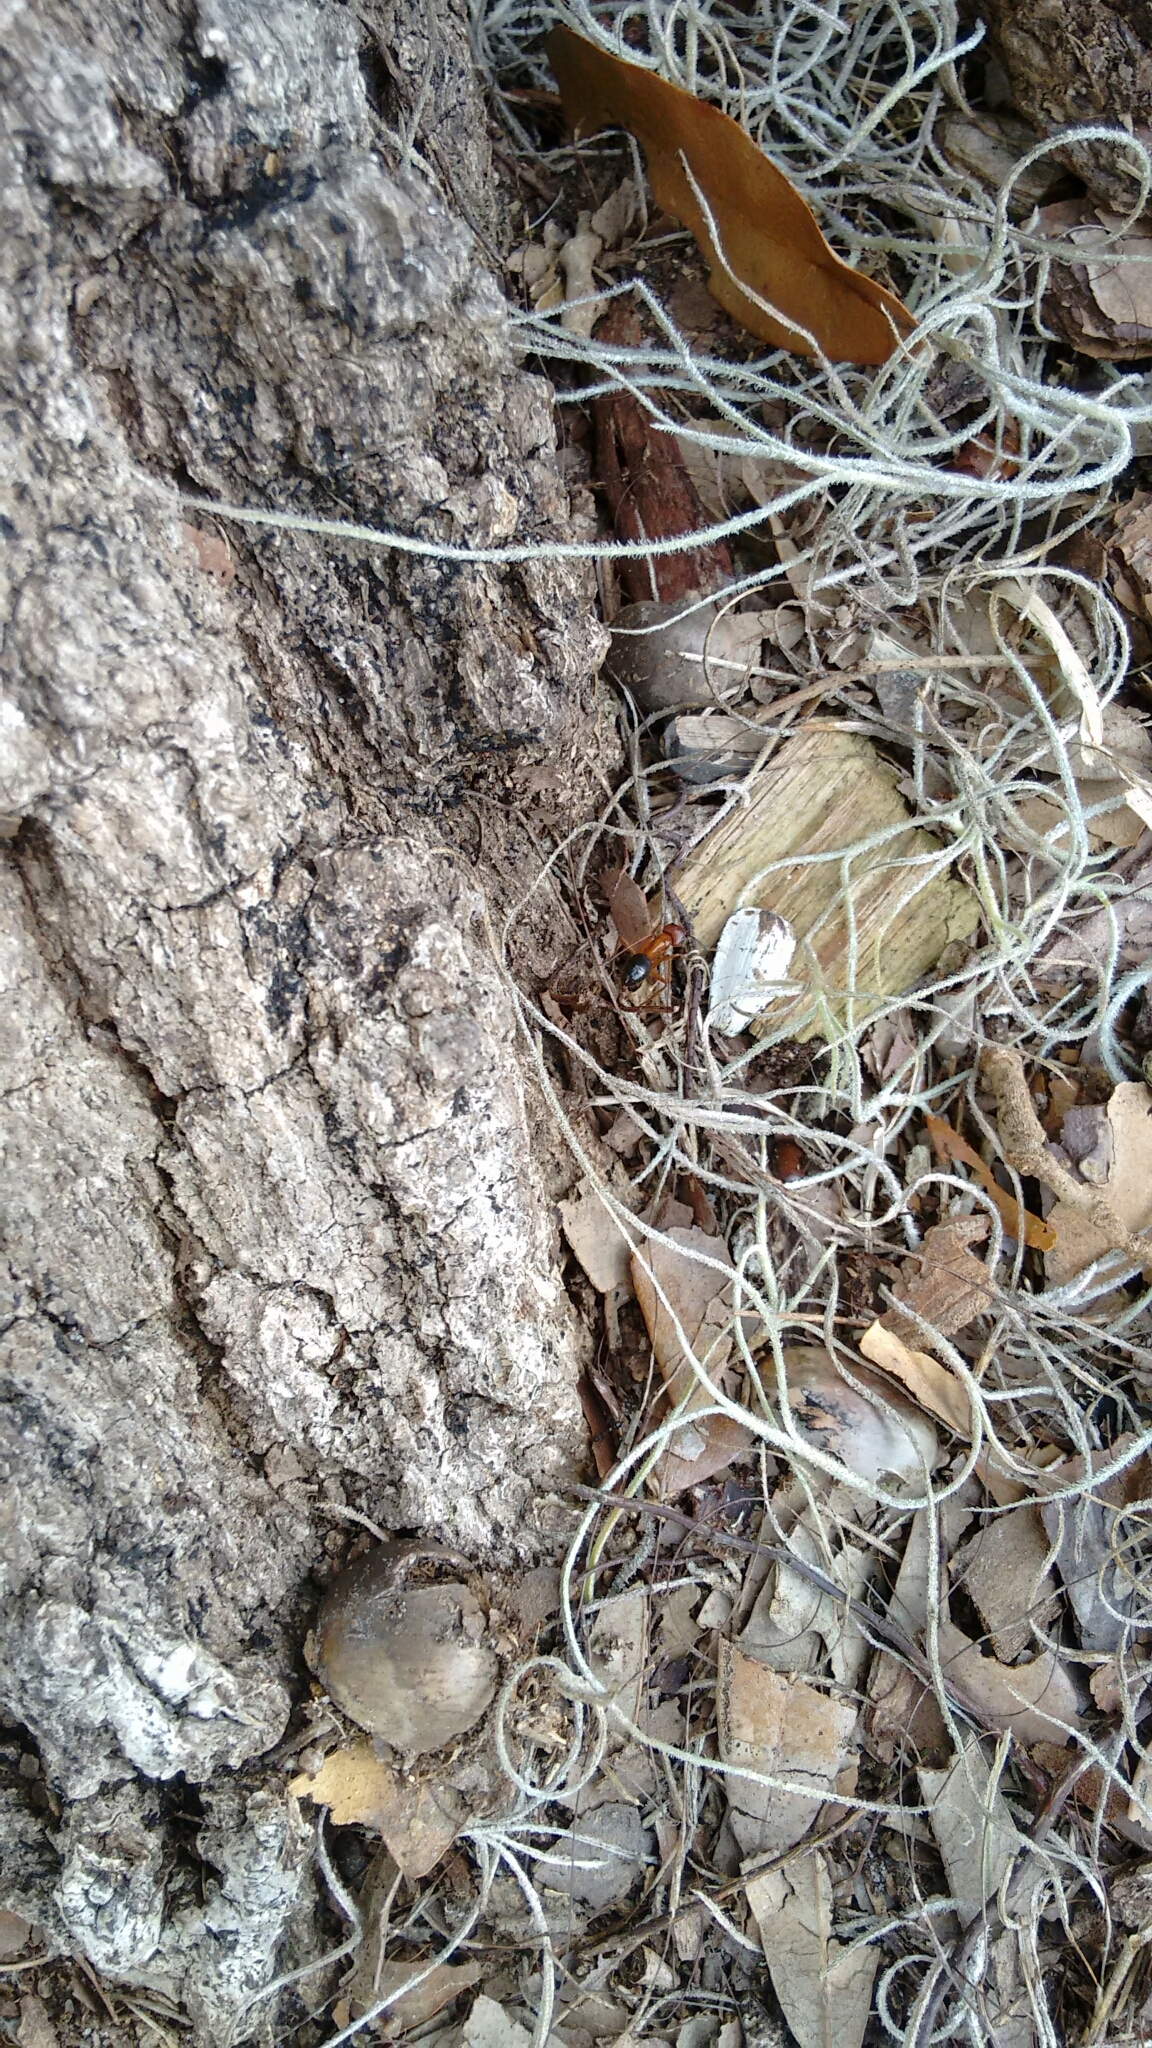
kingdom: Animalia
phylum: Arthropoda
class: Insecta
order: Hymenoptera
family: Formicidae
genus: Camponotus
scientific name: Camponotus floridanus
